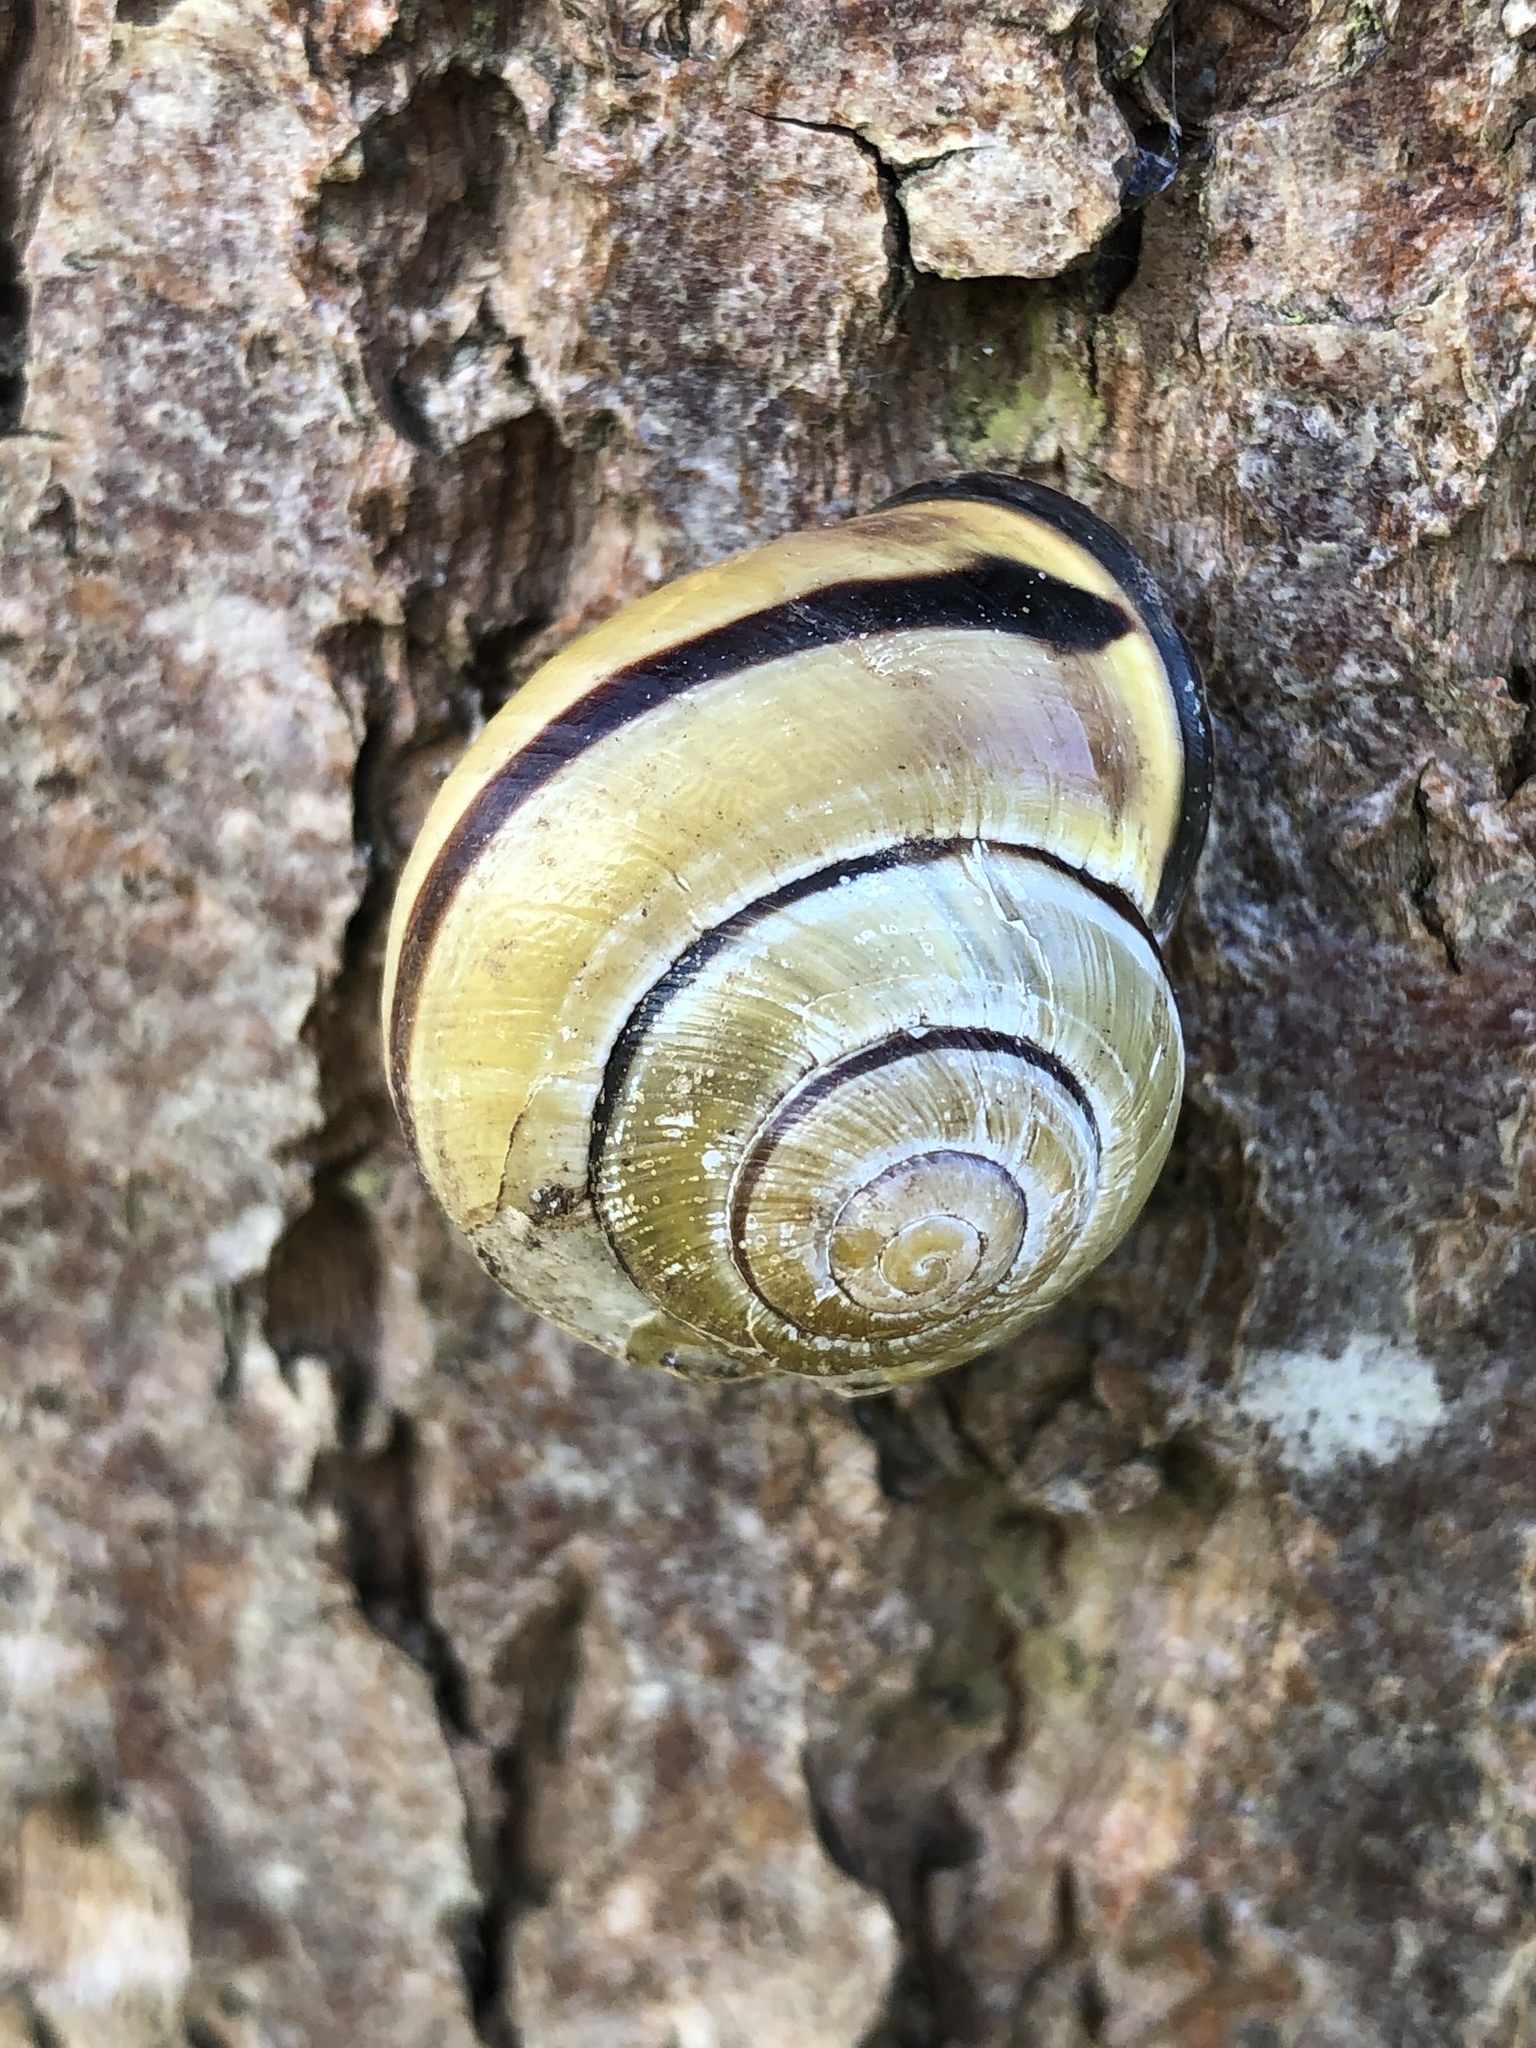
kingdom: Animalia
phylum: Mollusca
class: Gastropoda
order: Stylommatophora
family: Helicidae
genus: Cepaea
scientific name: Cepaea nemoralis
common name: Grovesnail
